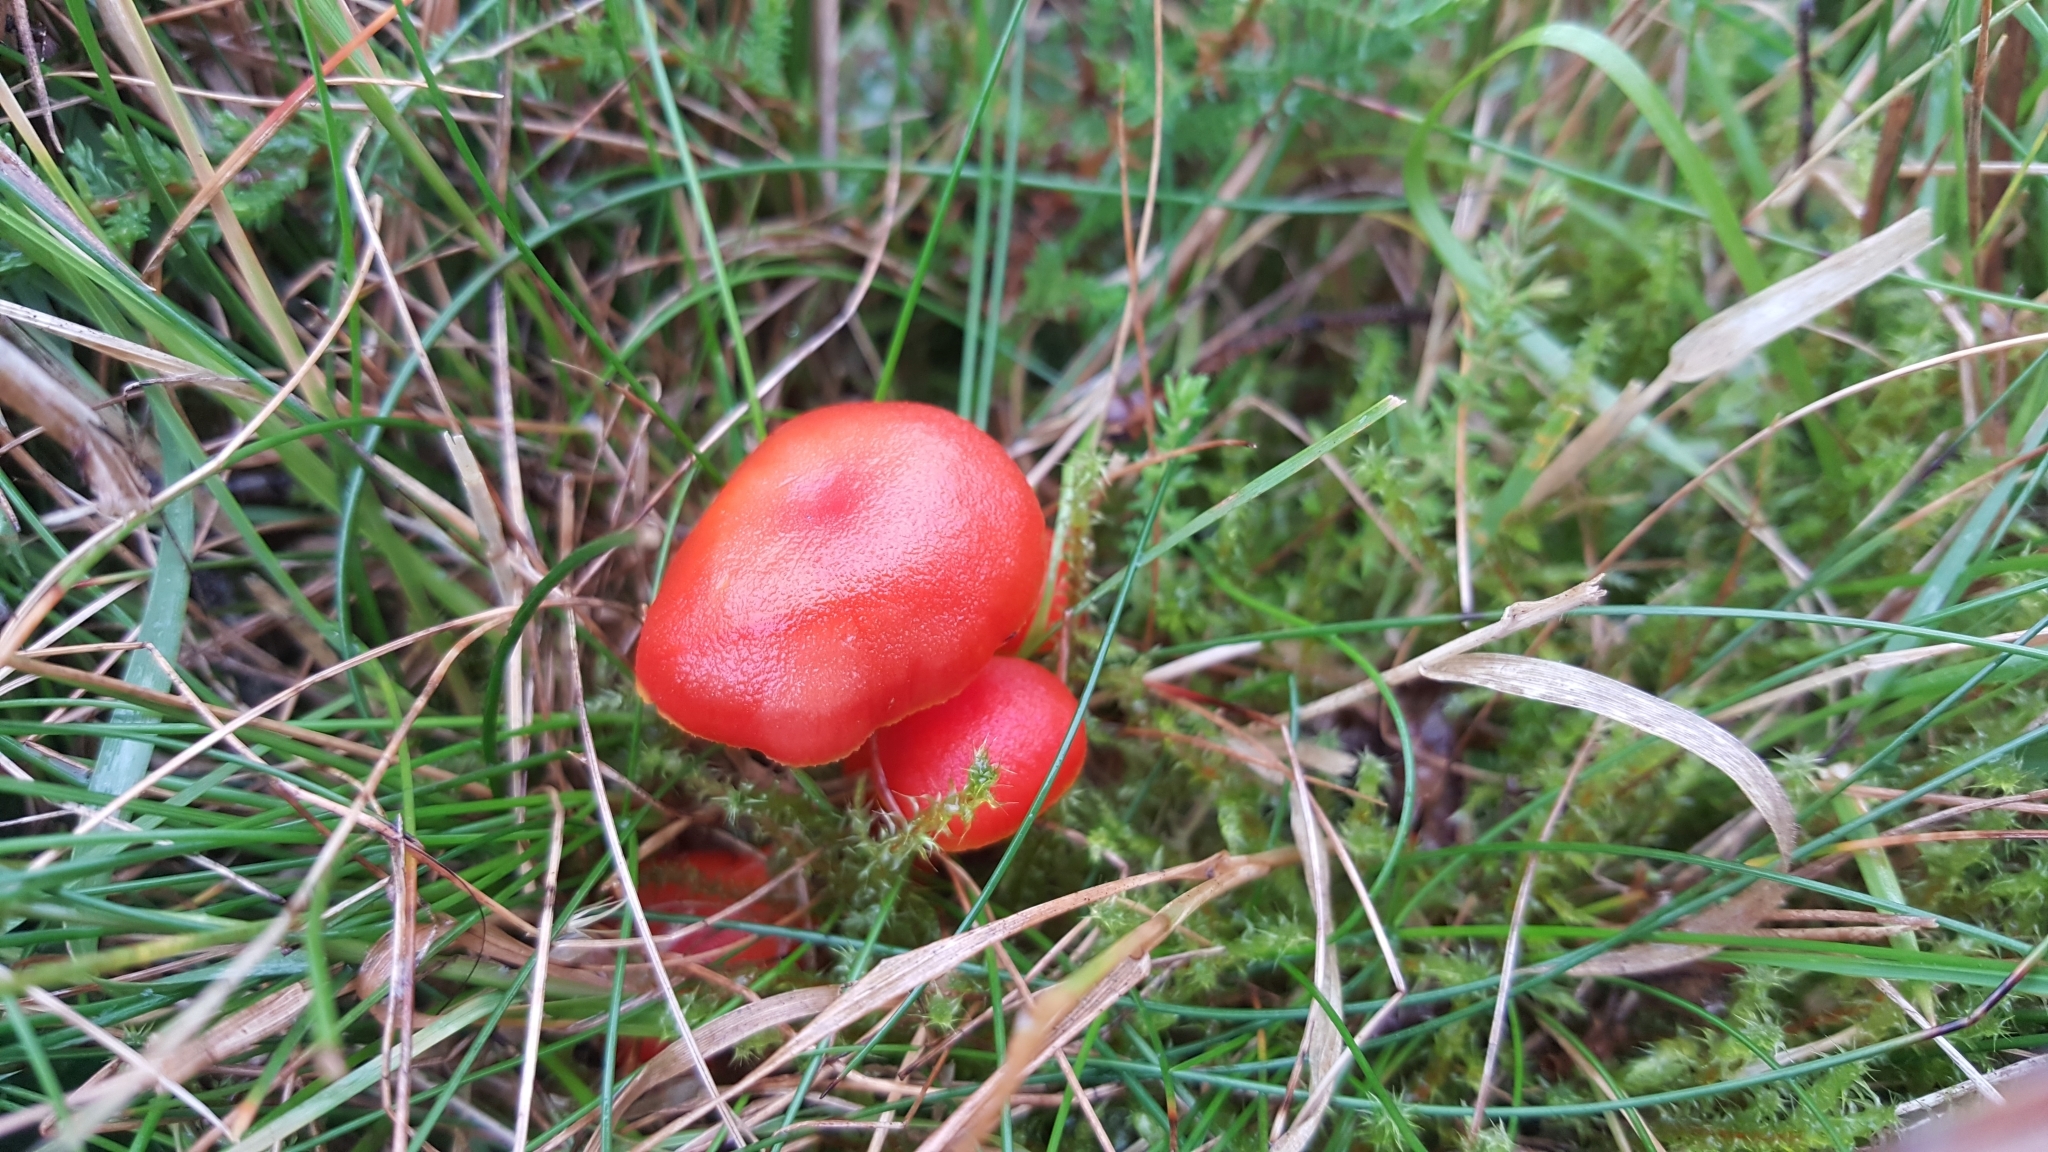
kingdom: Fungi
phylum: Basidiomycota
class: Agaricomycetes
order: Agaricales
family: Hygrophoraceae
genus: Hygrocybe
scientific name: Hygrocybe punicea
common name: Crimson waxcap
